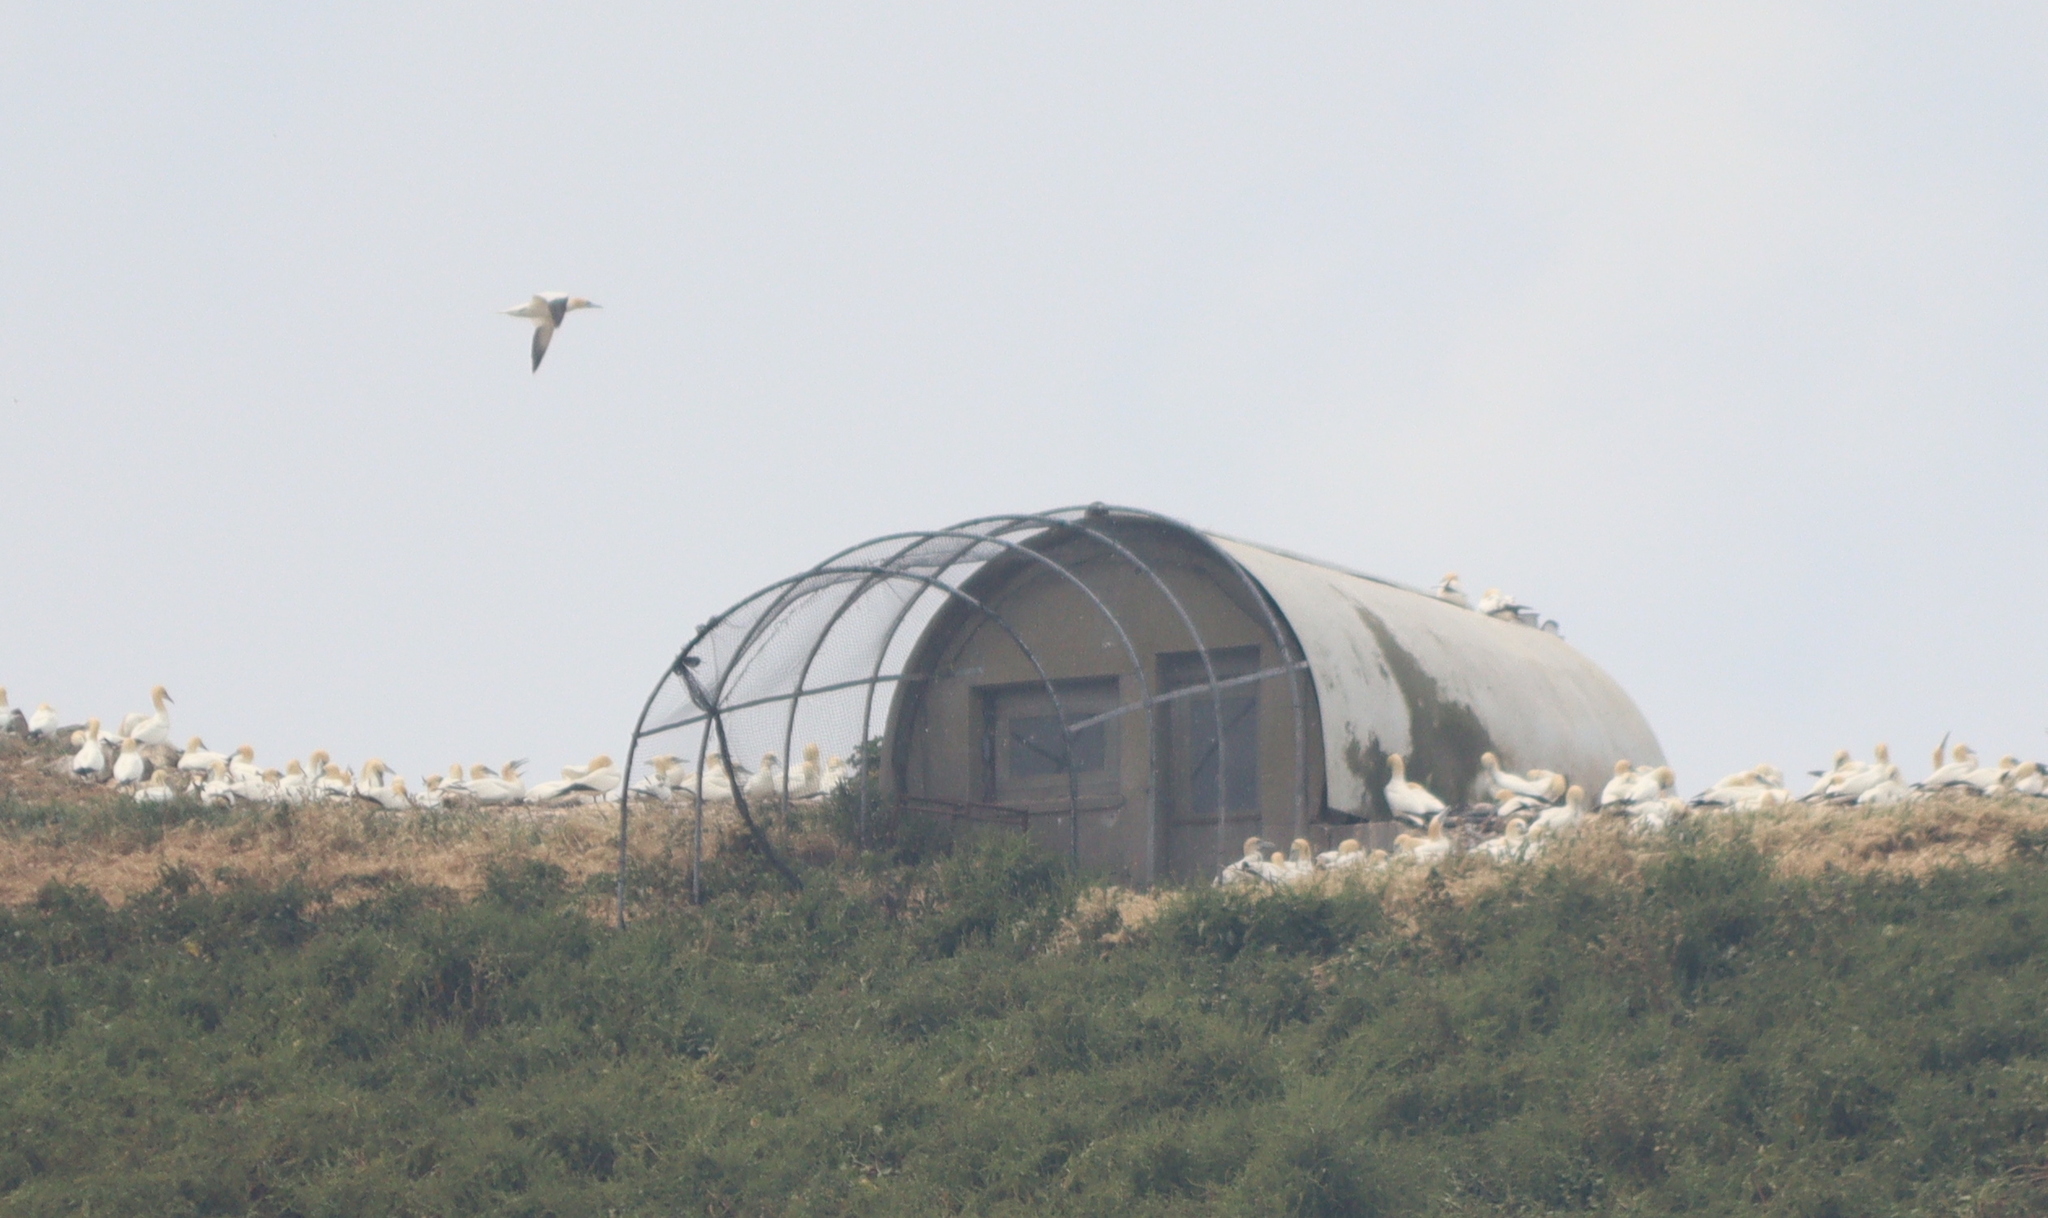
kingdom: Animalia
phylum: Chordata
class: Aves
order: Suliformes
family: Sulidae
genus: Morus
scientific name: Morus bassanus
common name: Northern gannet
